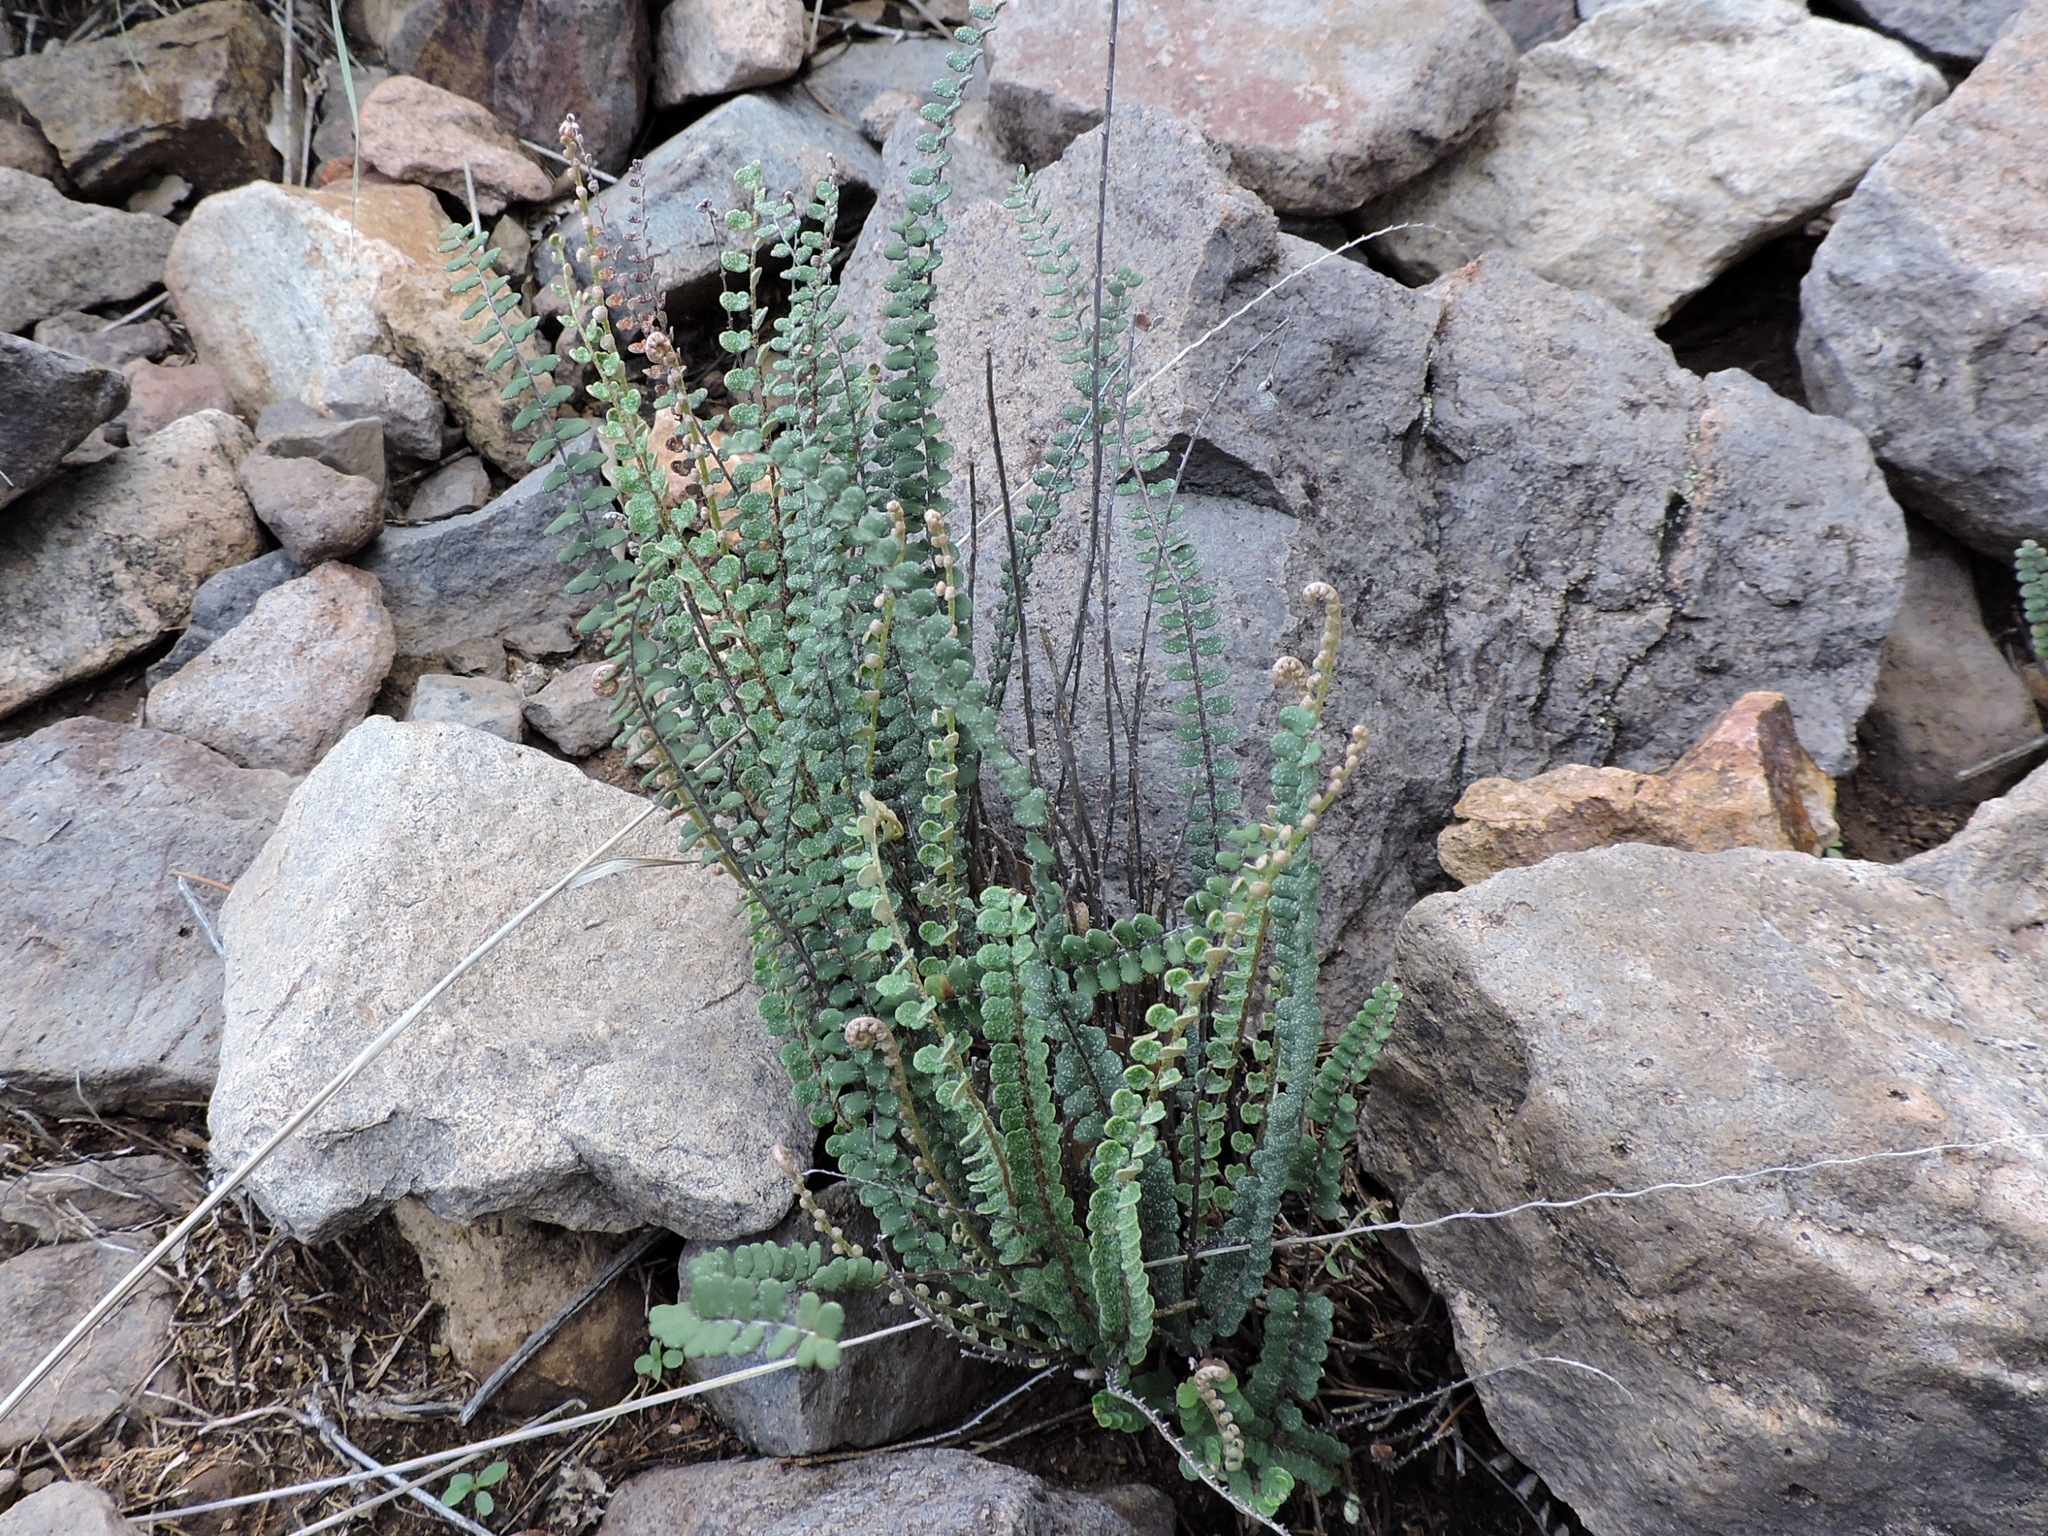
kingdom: Plantae
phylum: Tracheophyta
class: Polypodiopsida
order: Polypodiales
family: Pteridaceae
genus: Astrolepis
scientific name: Astrolepis cochisensis
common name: Scaly cloak fern
